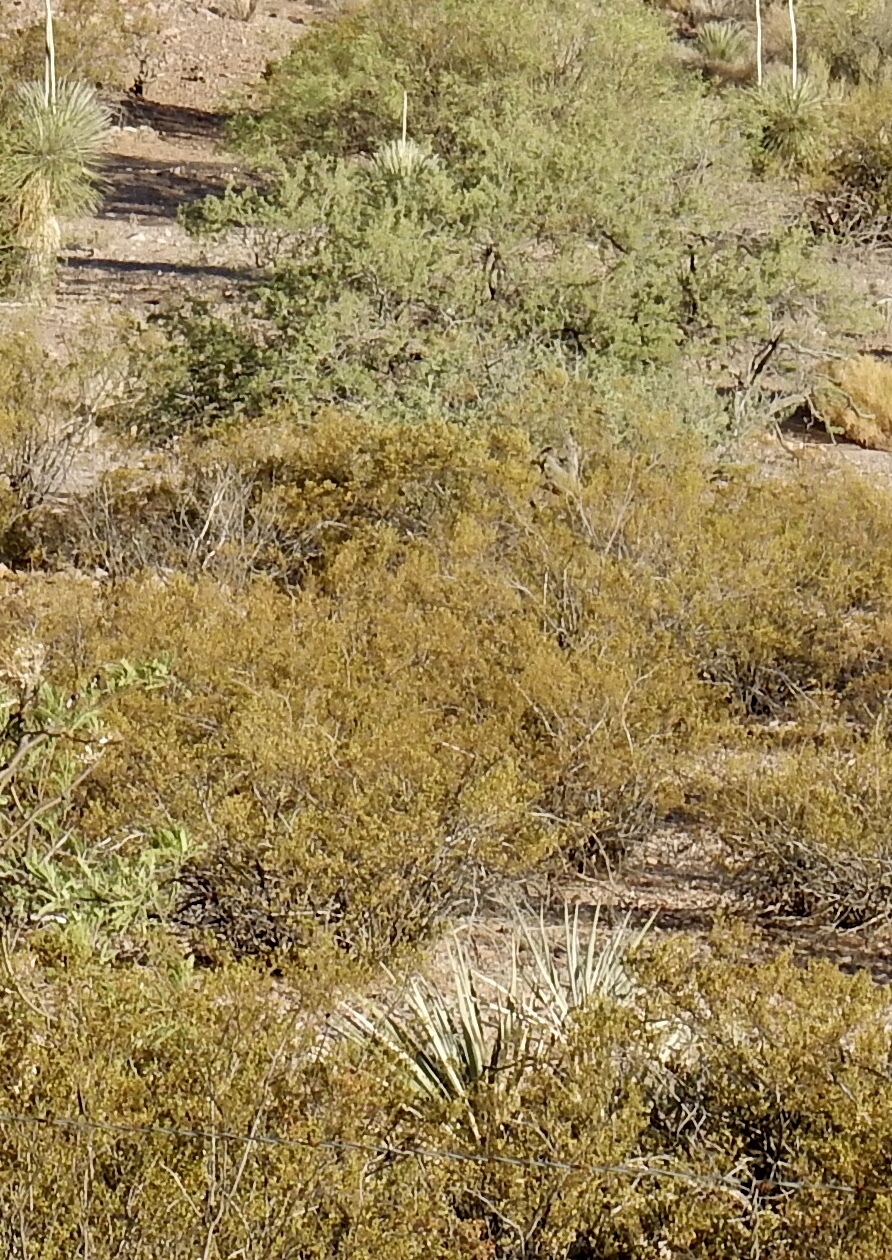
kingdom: Plantae
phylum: Tracheophyta
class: Magnoliopsida
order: Zygophyllales
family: Zygophyllaceae
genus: Larrea
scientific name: Larrea tridentata
